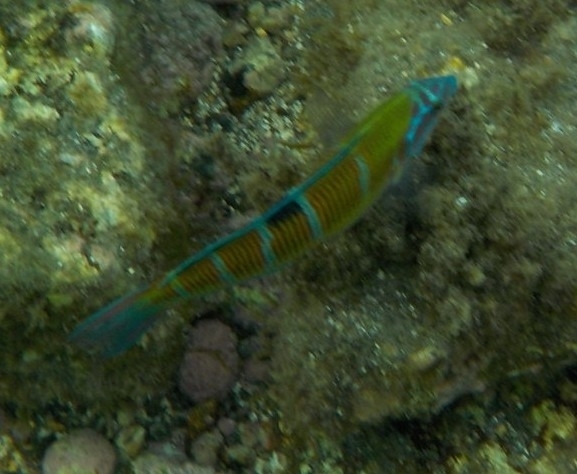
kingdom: Animalia
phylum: Chordata
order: Perciformes
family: Labridae
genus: Thalassoma
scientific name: Thalassoma pavo
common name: Ornate wrasse
